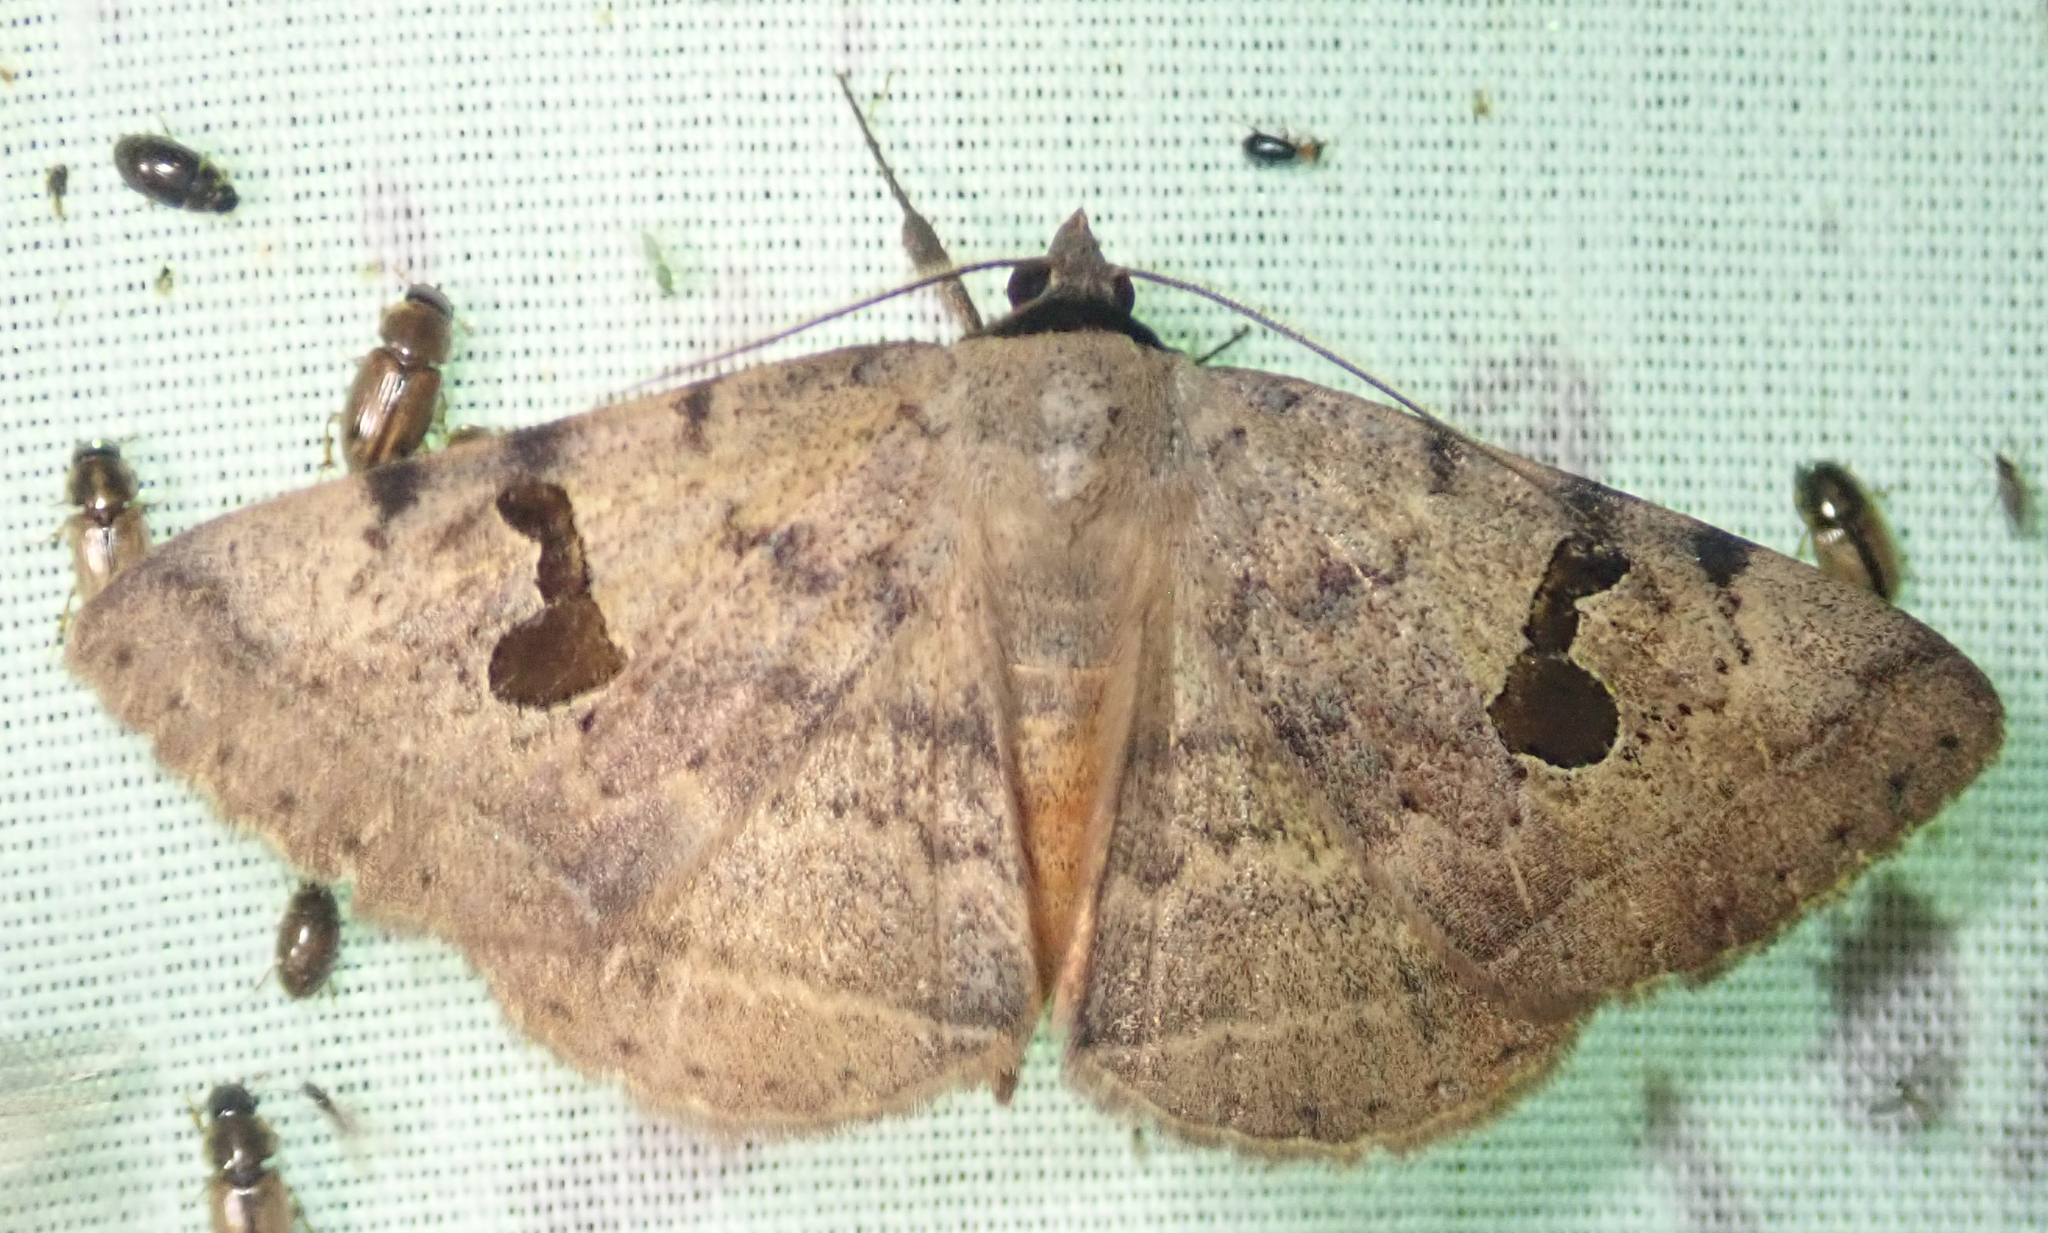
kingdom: Animalia
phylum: Arthropoda
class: Insecta
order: Lepidoptera
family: Erebidae
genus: Hypopyra
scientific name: Hypopyra africana
